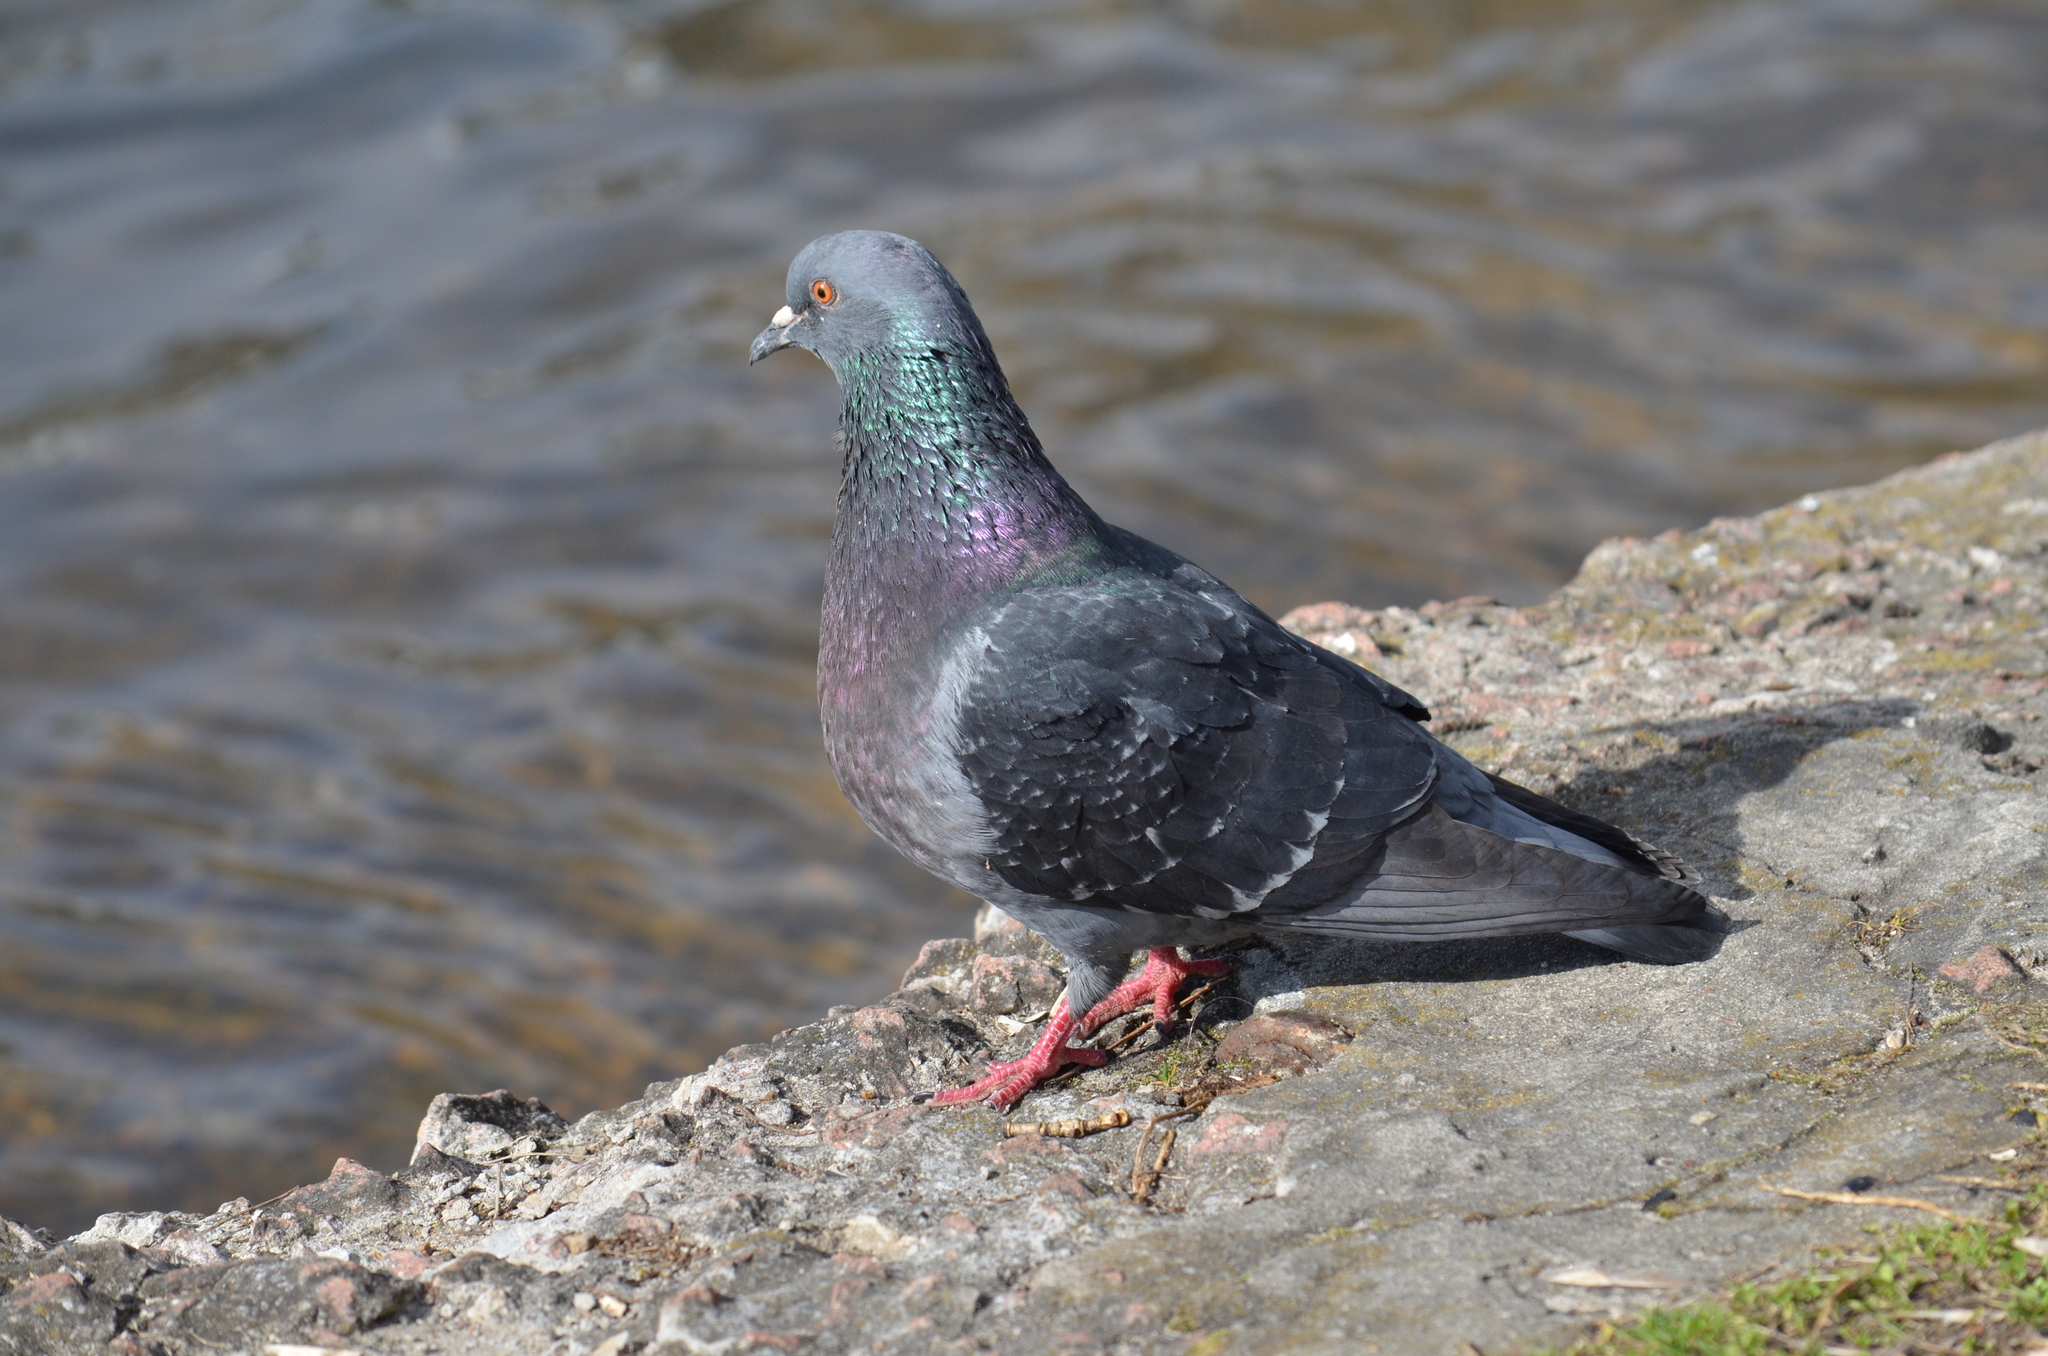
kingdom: Animalia
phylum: Chordata
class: Aves
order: Columbiformes
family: Columbidae
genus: Columba
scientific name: Columba livia
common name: Rock pigeon
